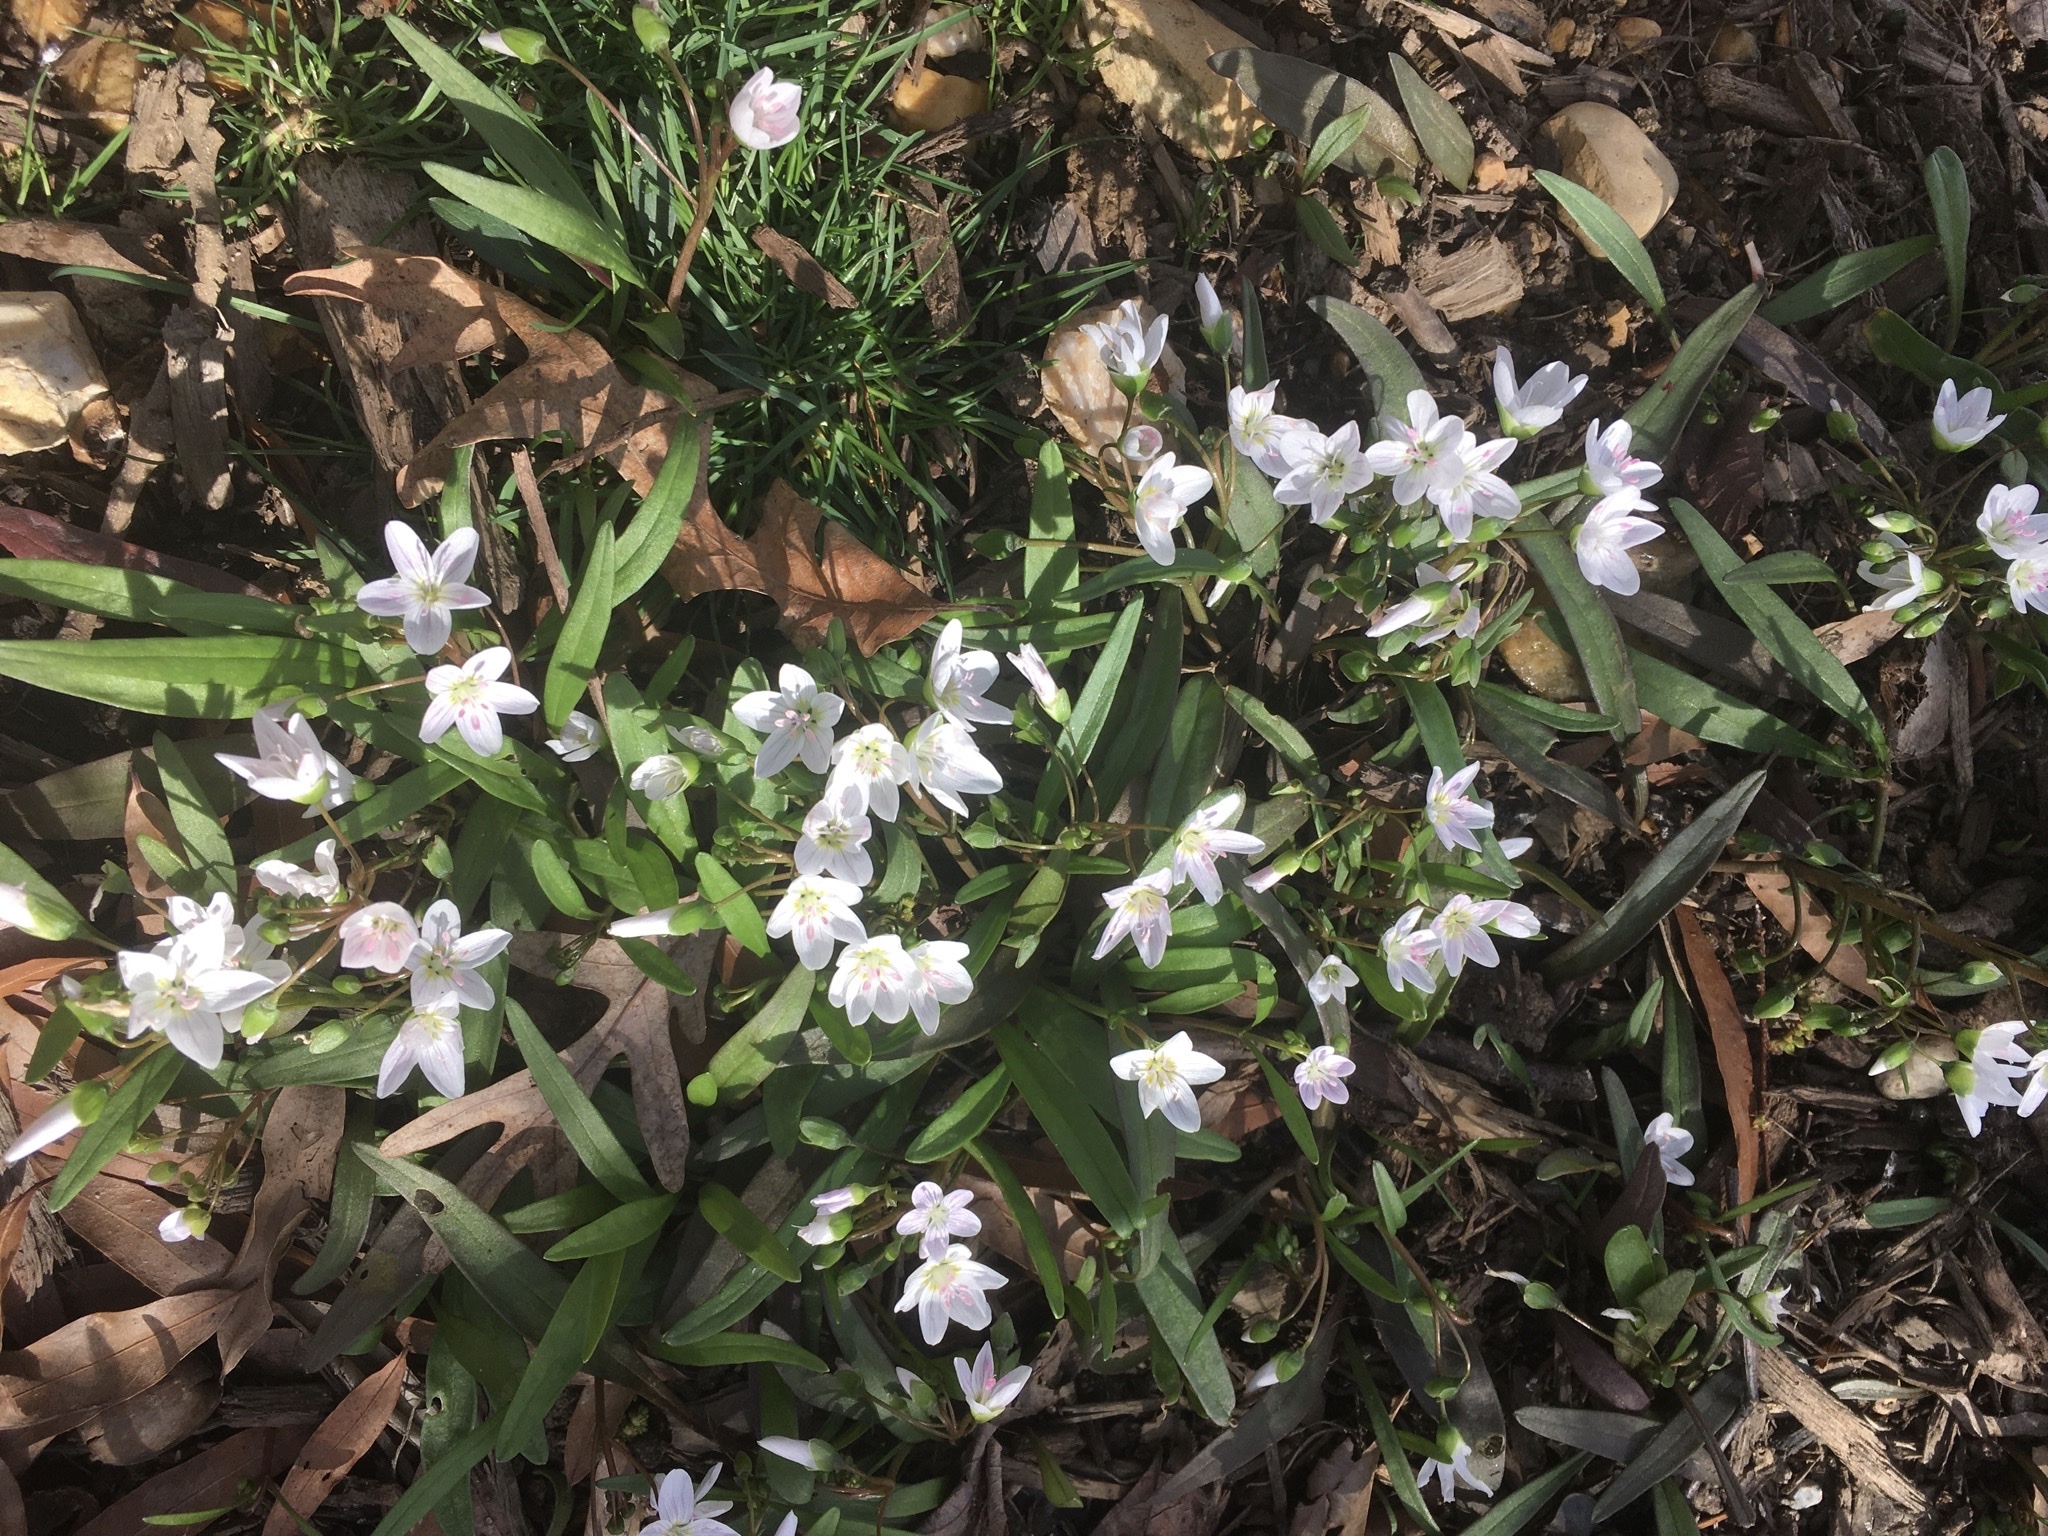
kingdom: Plantae
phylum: Tracheophyta
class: Magnoliopsida
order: Caryophyllales
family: Montiaceae
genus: Claytonia
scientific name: Claytonia virginica
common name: Virginia springbeauty
